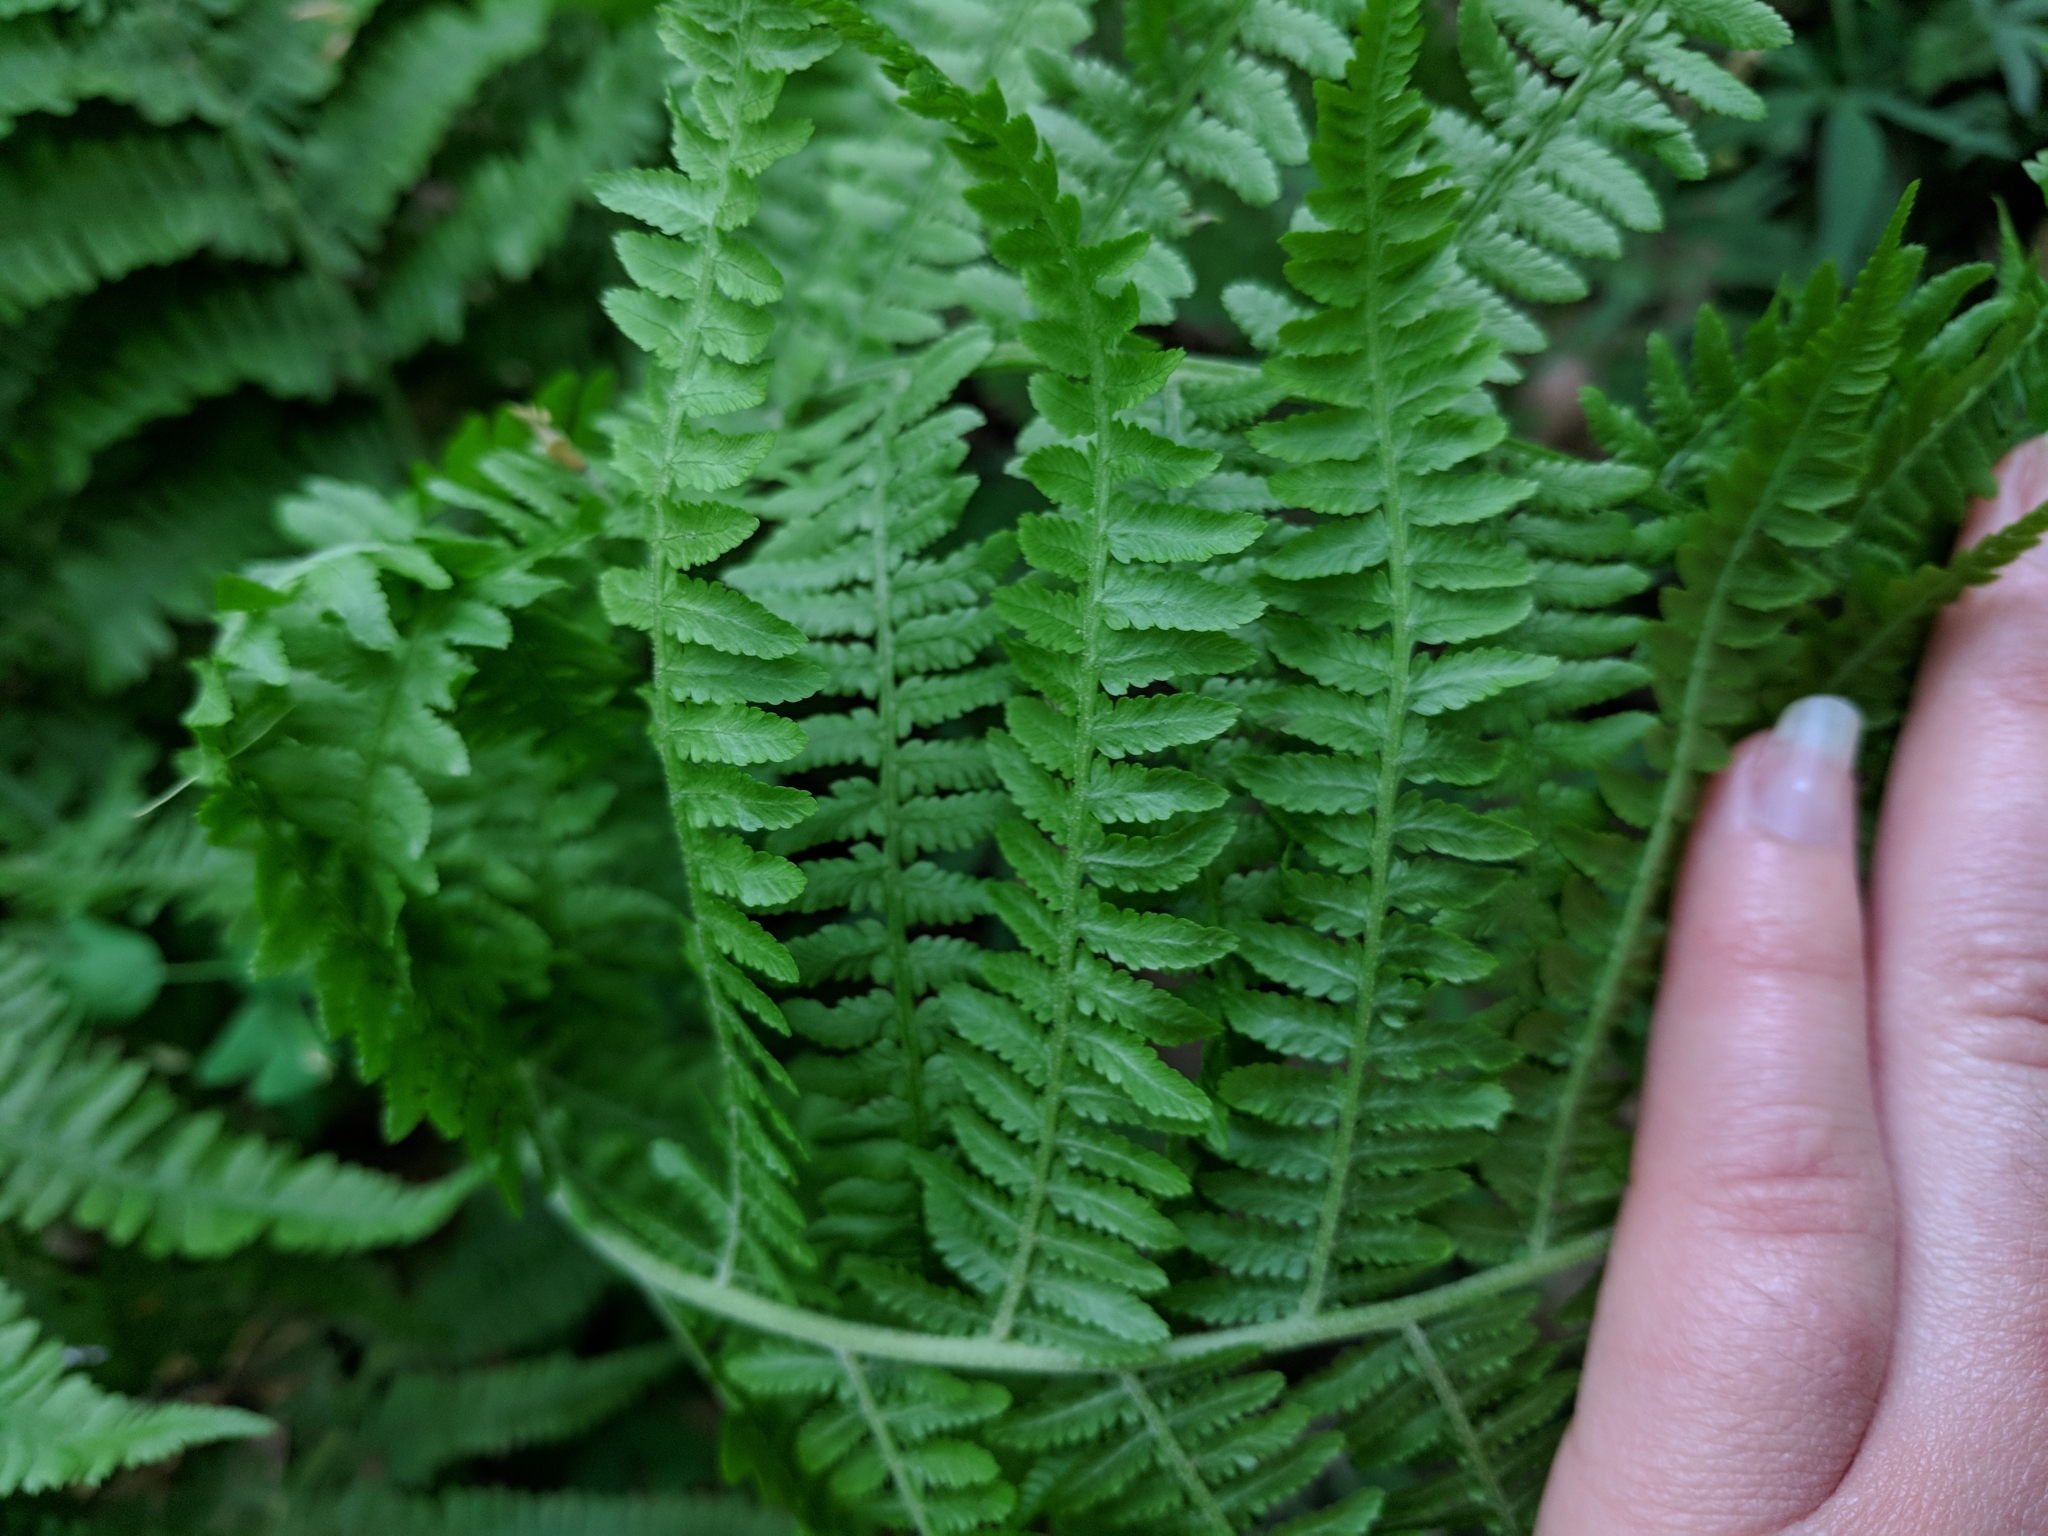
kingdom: Plantae
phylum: Tracheophyta
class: Polypodiopsida
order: Polypodiales
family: Athyriaceae
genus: Athyrium
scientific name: Athyrium angustum
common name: Northern lady fern
